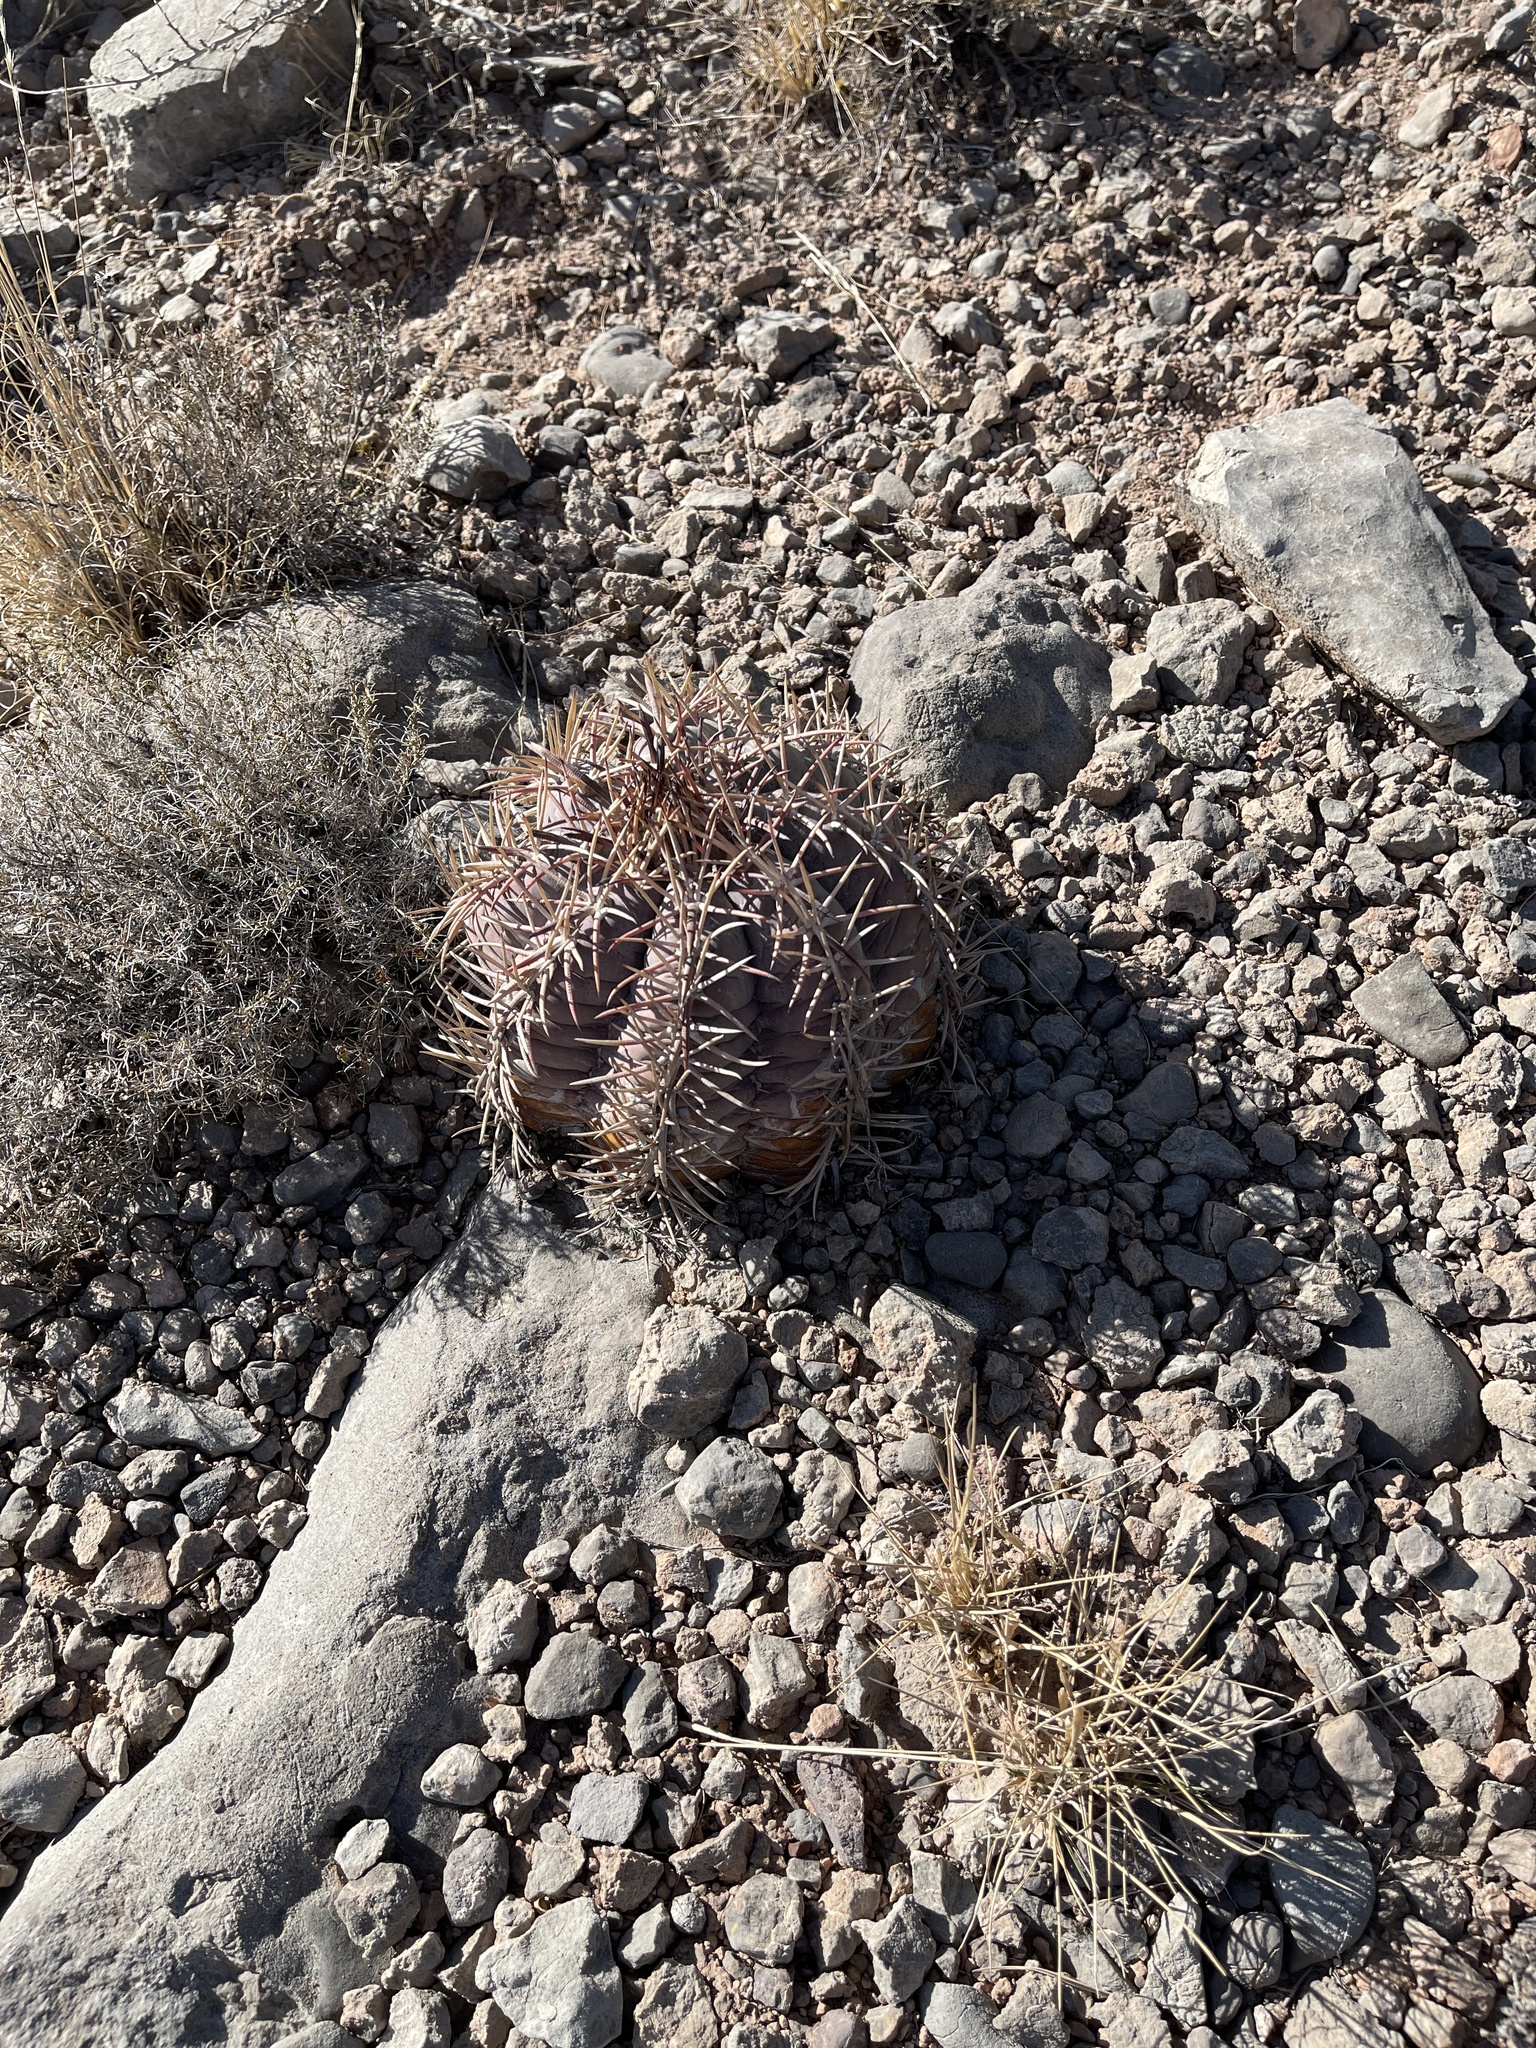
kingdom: Plantae
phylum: Tracheophyta
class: Magnoliopsida
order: Caryophyllales
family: Cactaceae
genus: Echinocactus
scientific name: Echinocactus horizonthalonius
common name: Devilshead
